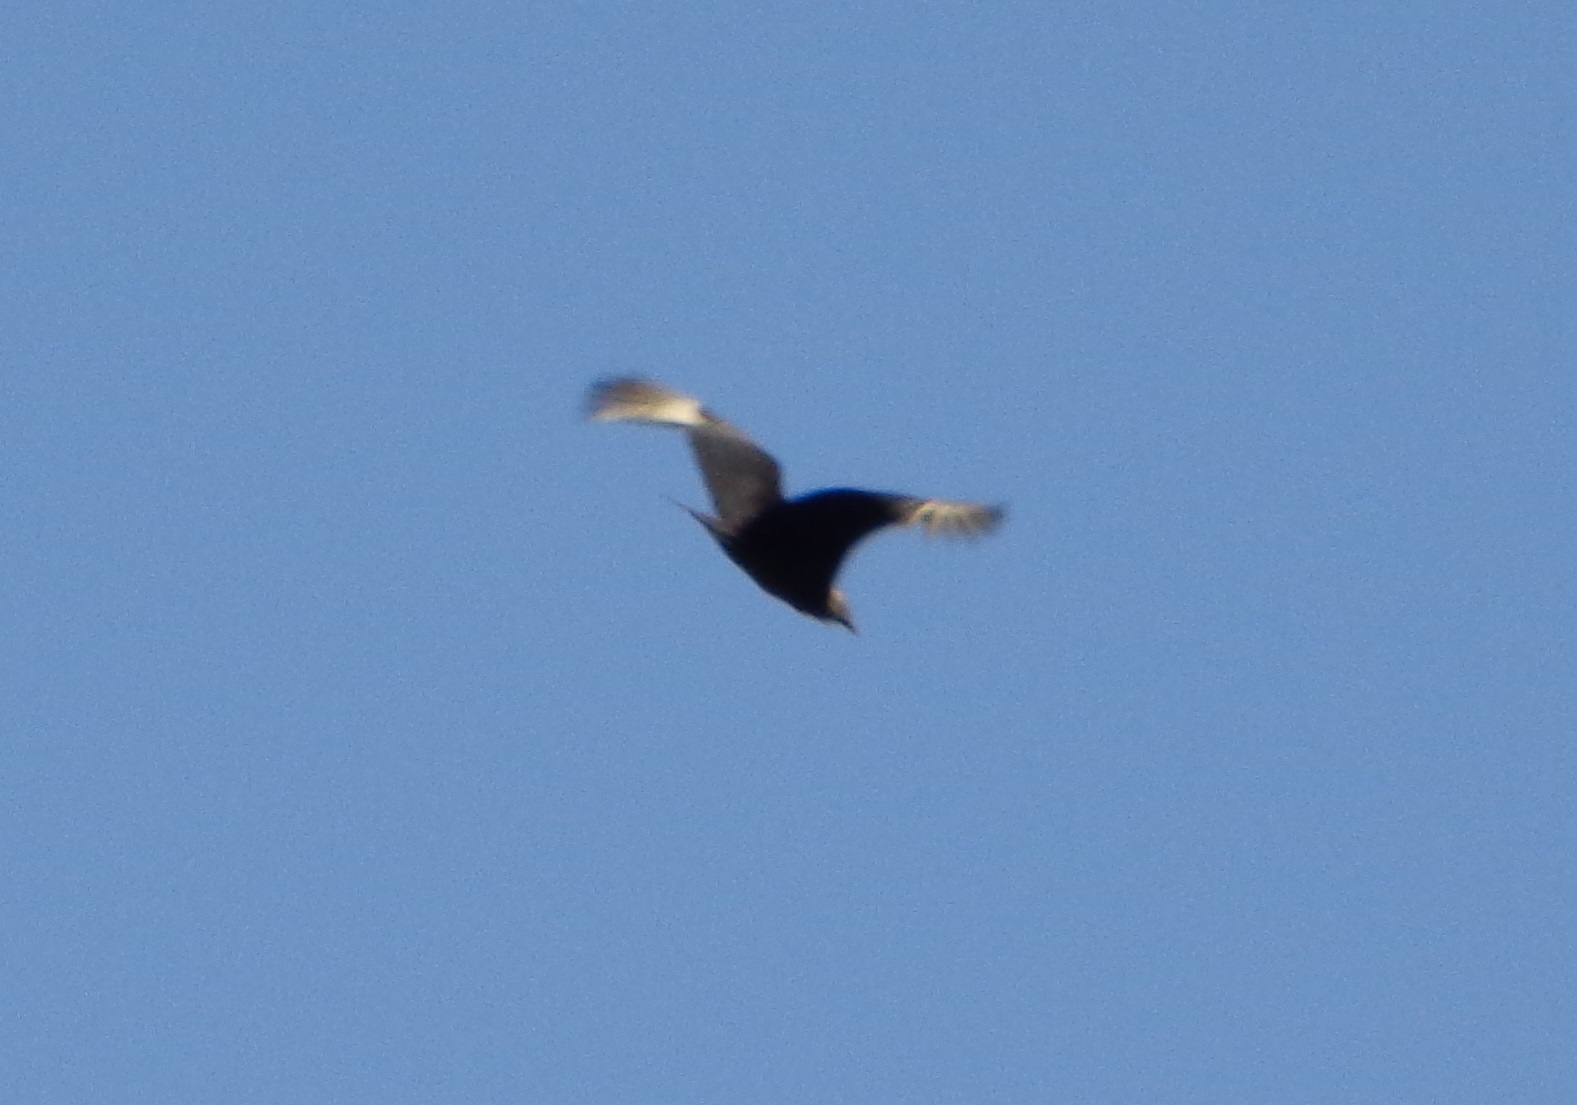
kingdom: Animalia
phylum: Chordata
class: Aves
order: Accipitriformes
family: Cathartidae
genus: Coragyps
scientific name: Coragyps atratus
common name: Black vulture
